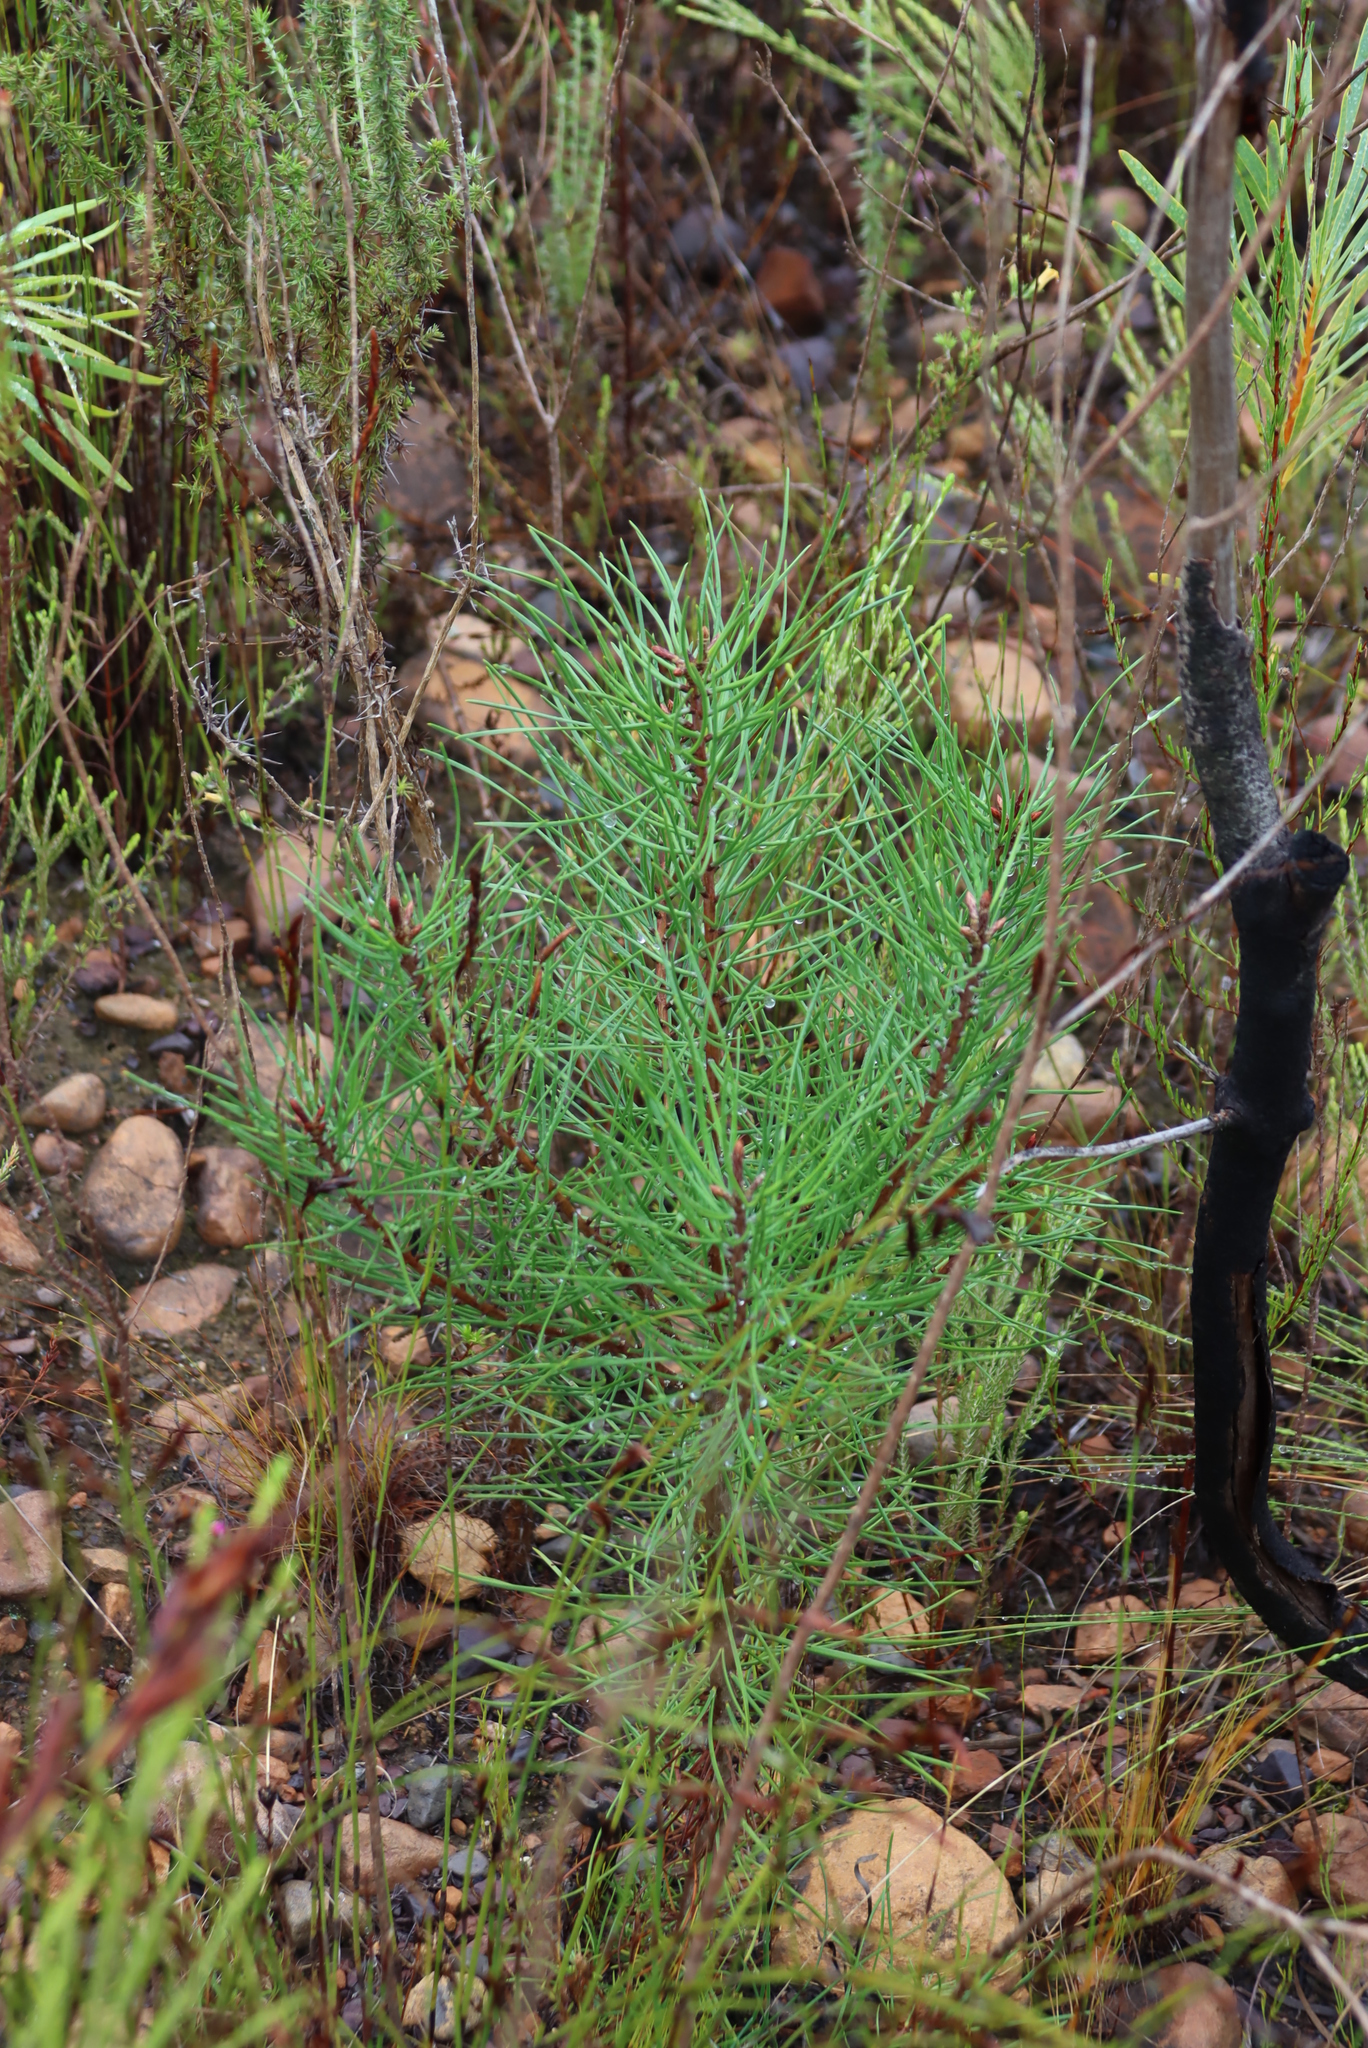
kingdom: Plantae
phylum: Tracheophyta
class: Pinopsida
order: Pinales
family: Pinaceae
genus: Pinus
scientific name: Pinus pinaster
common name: Maritime pine
